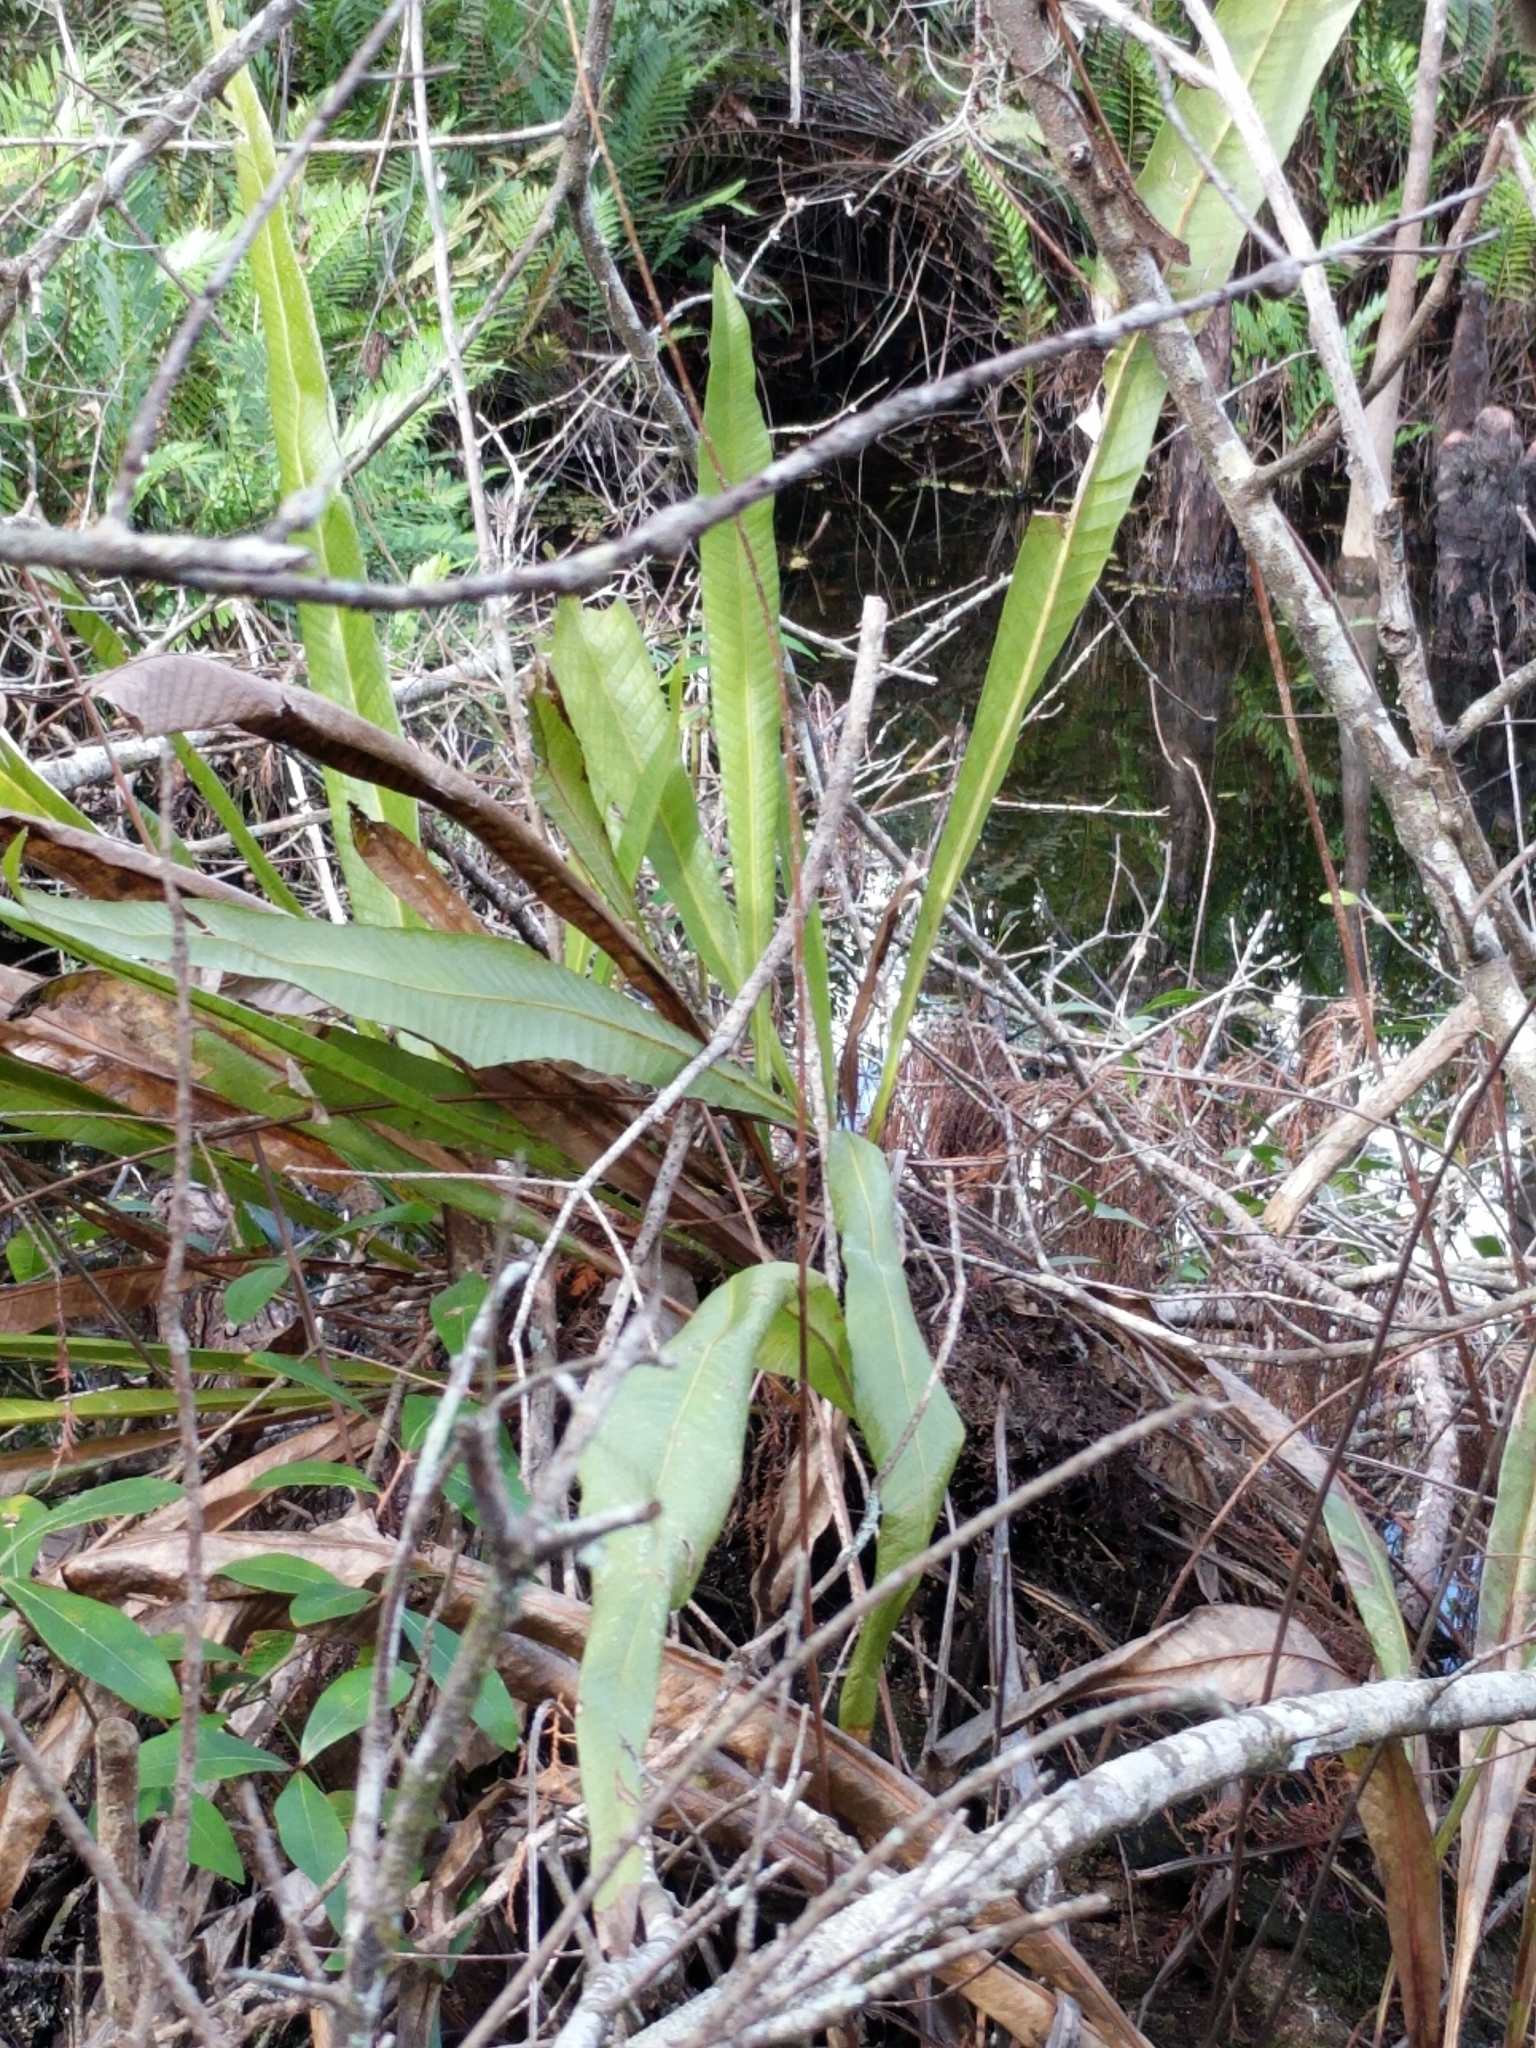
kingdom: Plantae
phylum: Tracheophyta
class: Polypodiopsida
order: Polypodiales
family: Polypodiaceae
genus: Campyloneurum
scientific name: Campyloneurum phyllitidis
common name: Cow-tongue fern
